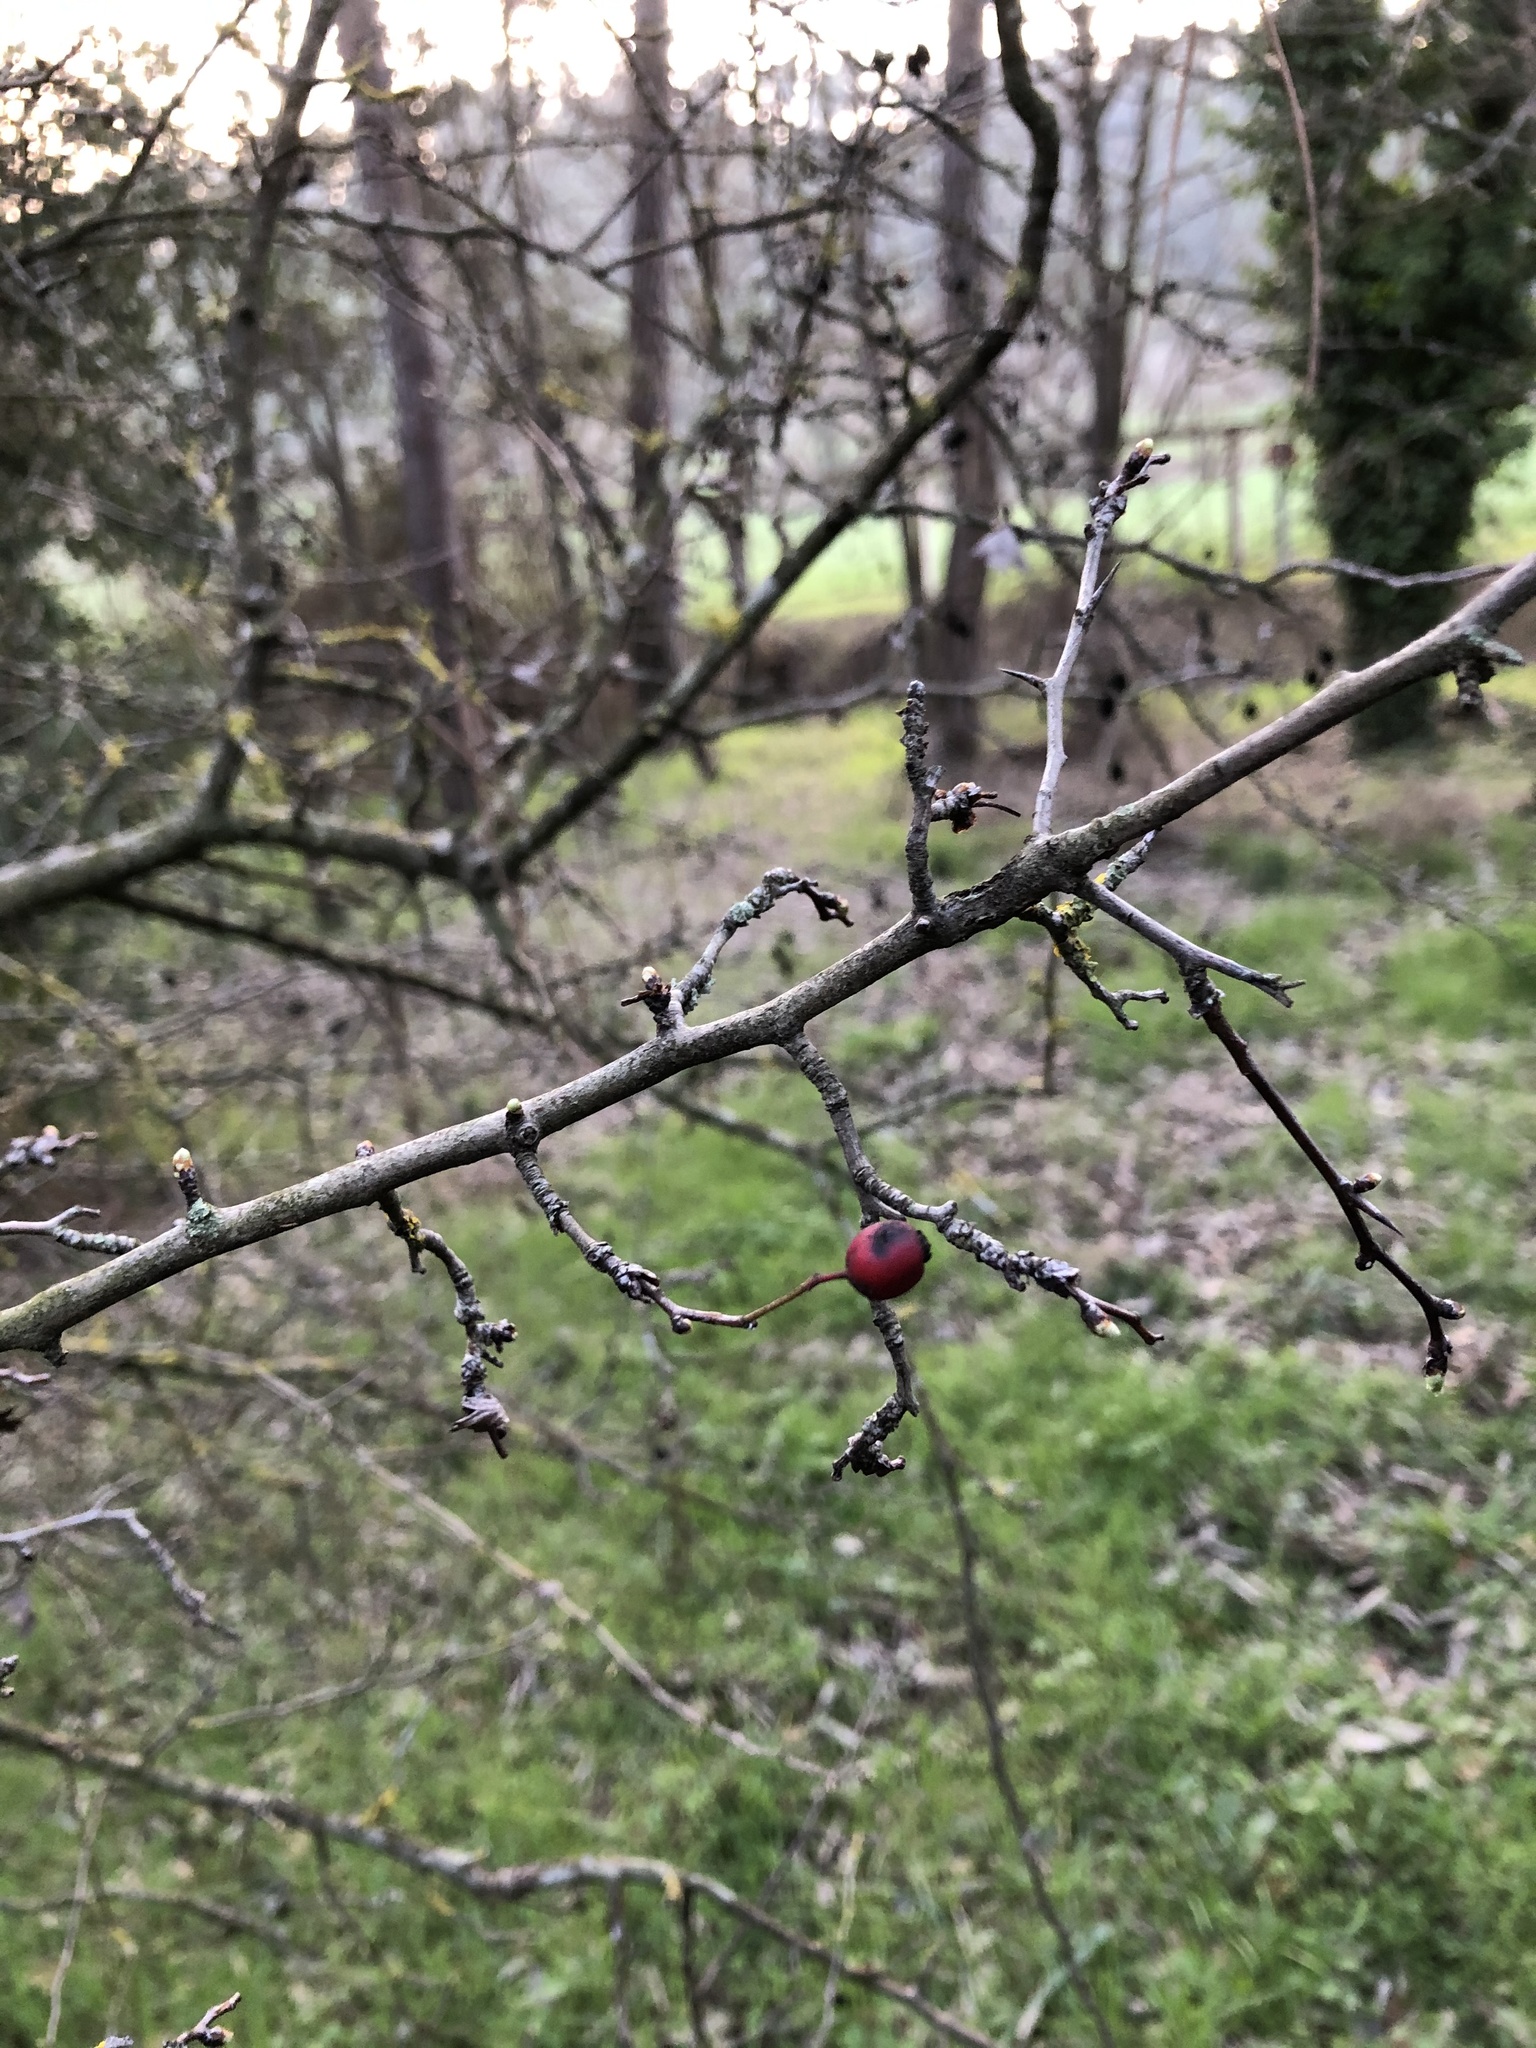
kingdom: Plantae
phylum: Tracheophyta
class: Magnoliopsida
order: Rosales
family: Rosaceae
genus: Crataegus
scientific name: Crataegus monogyna
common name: Hawthorn
